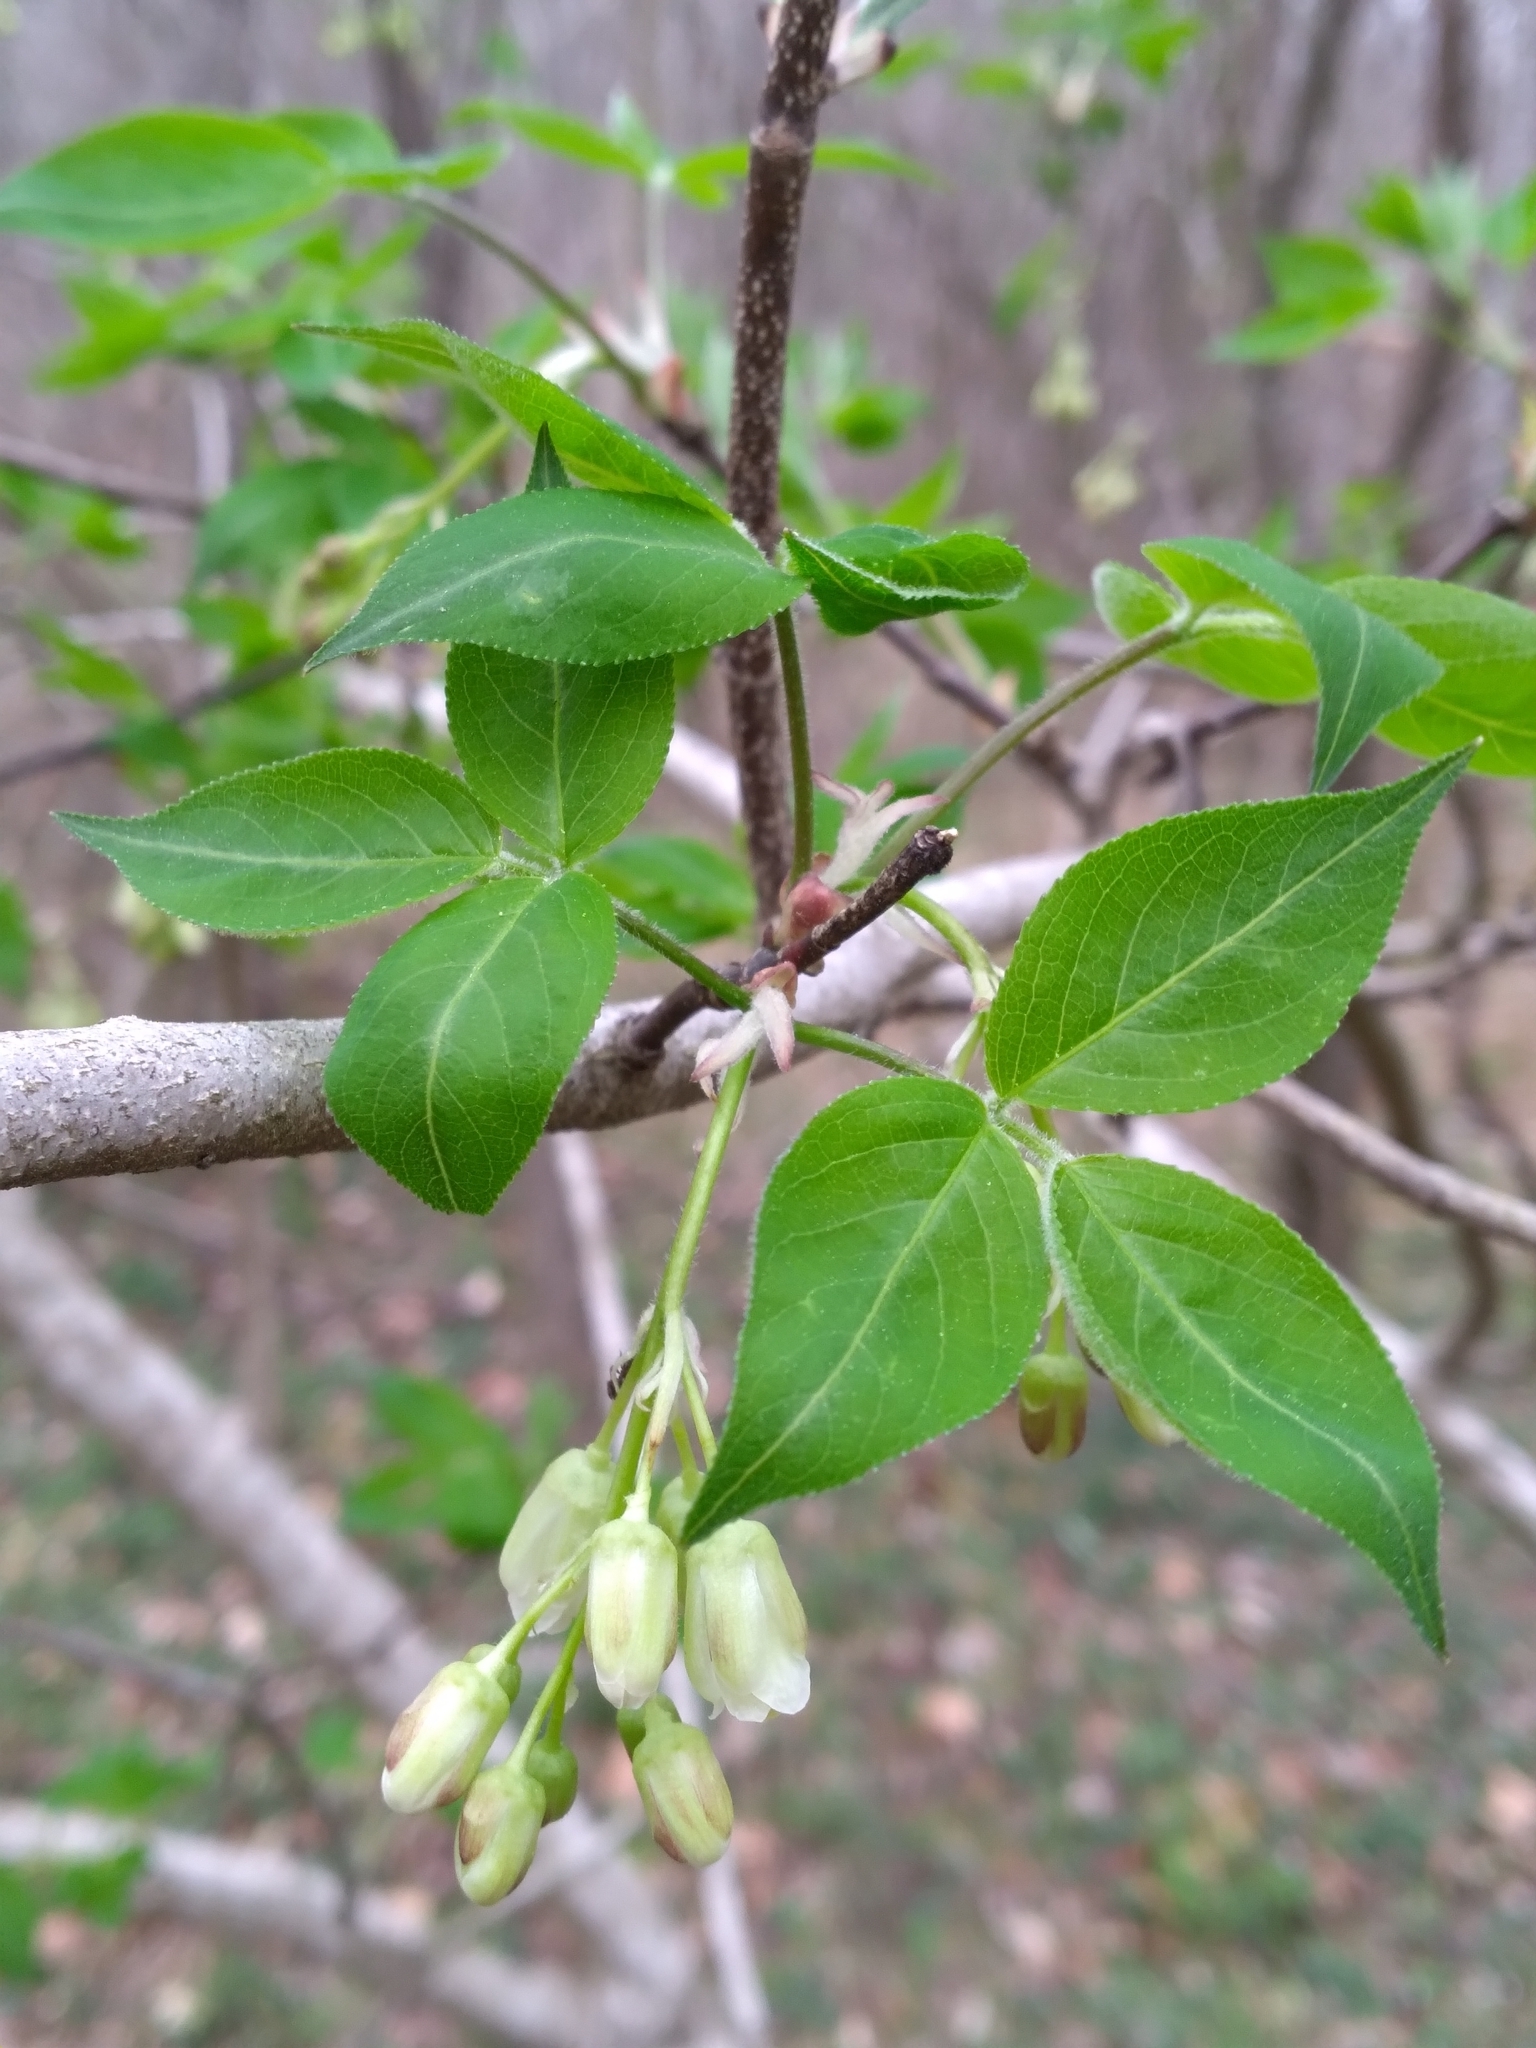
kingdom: Plantae
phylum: Tracheophyta
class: Magnoliopsida
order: Crossosomatales
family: Staphyleaceae
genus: Staphylea
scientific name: Staphylea trifolia
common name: American bladdernut
